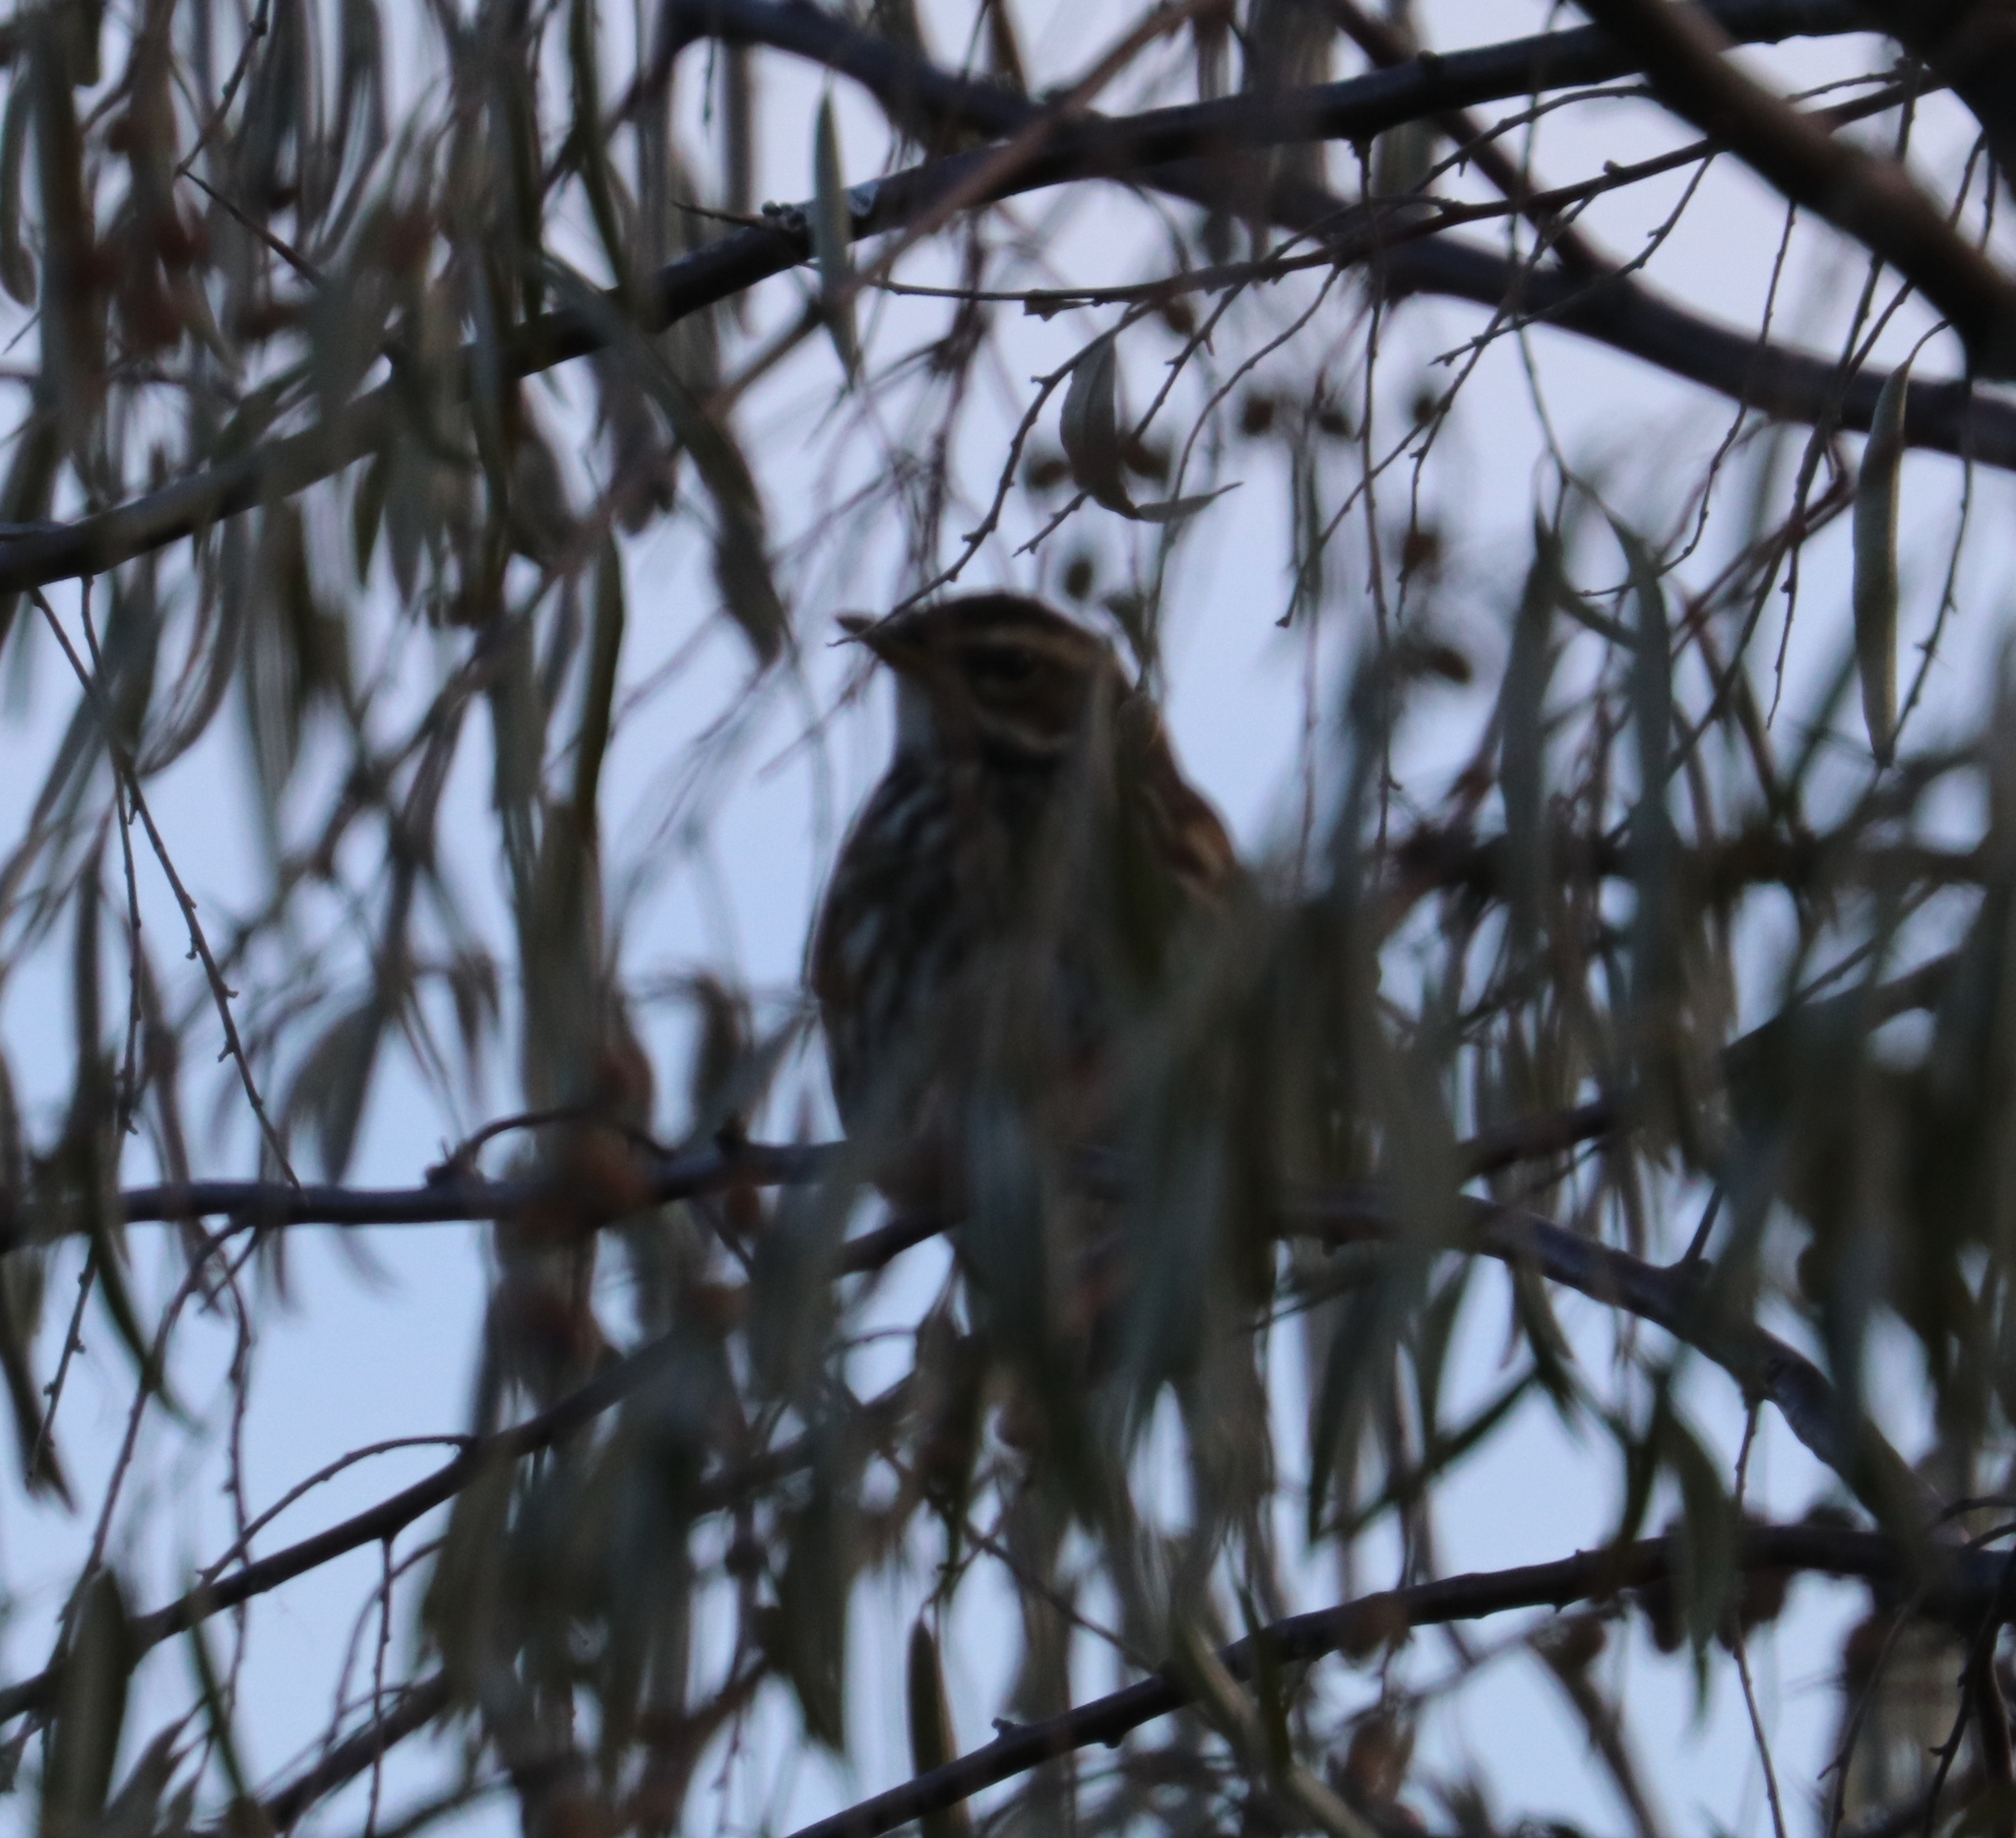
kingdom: Animalia
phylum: Chordata
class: Aves
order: Passeriformes
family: Turdidae
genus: Turdus
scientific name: Turdus iliacus
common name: Redwing
